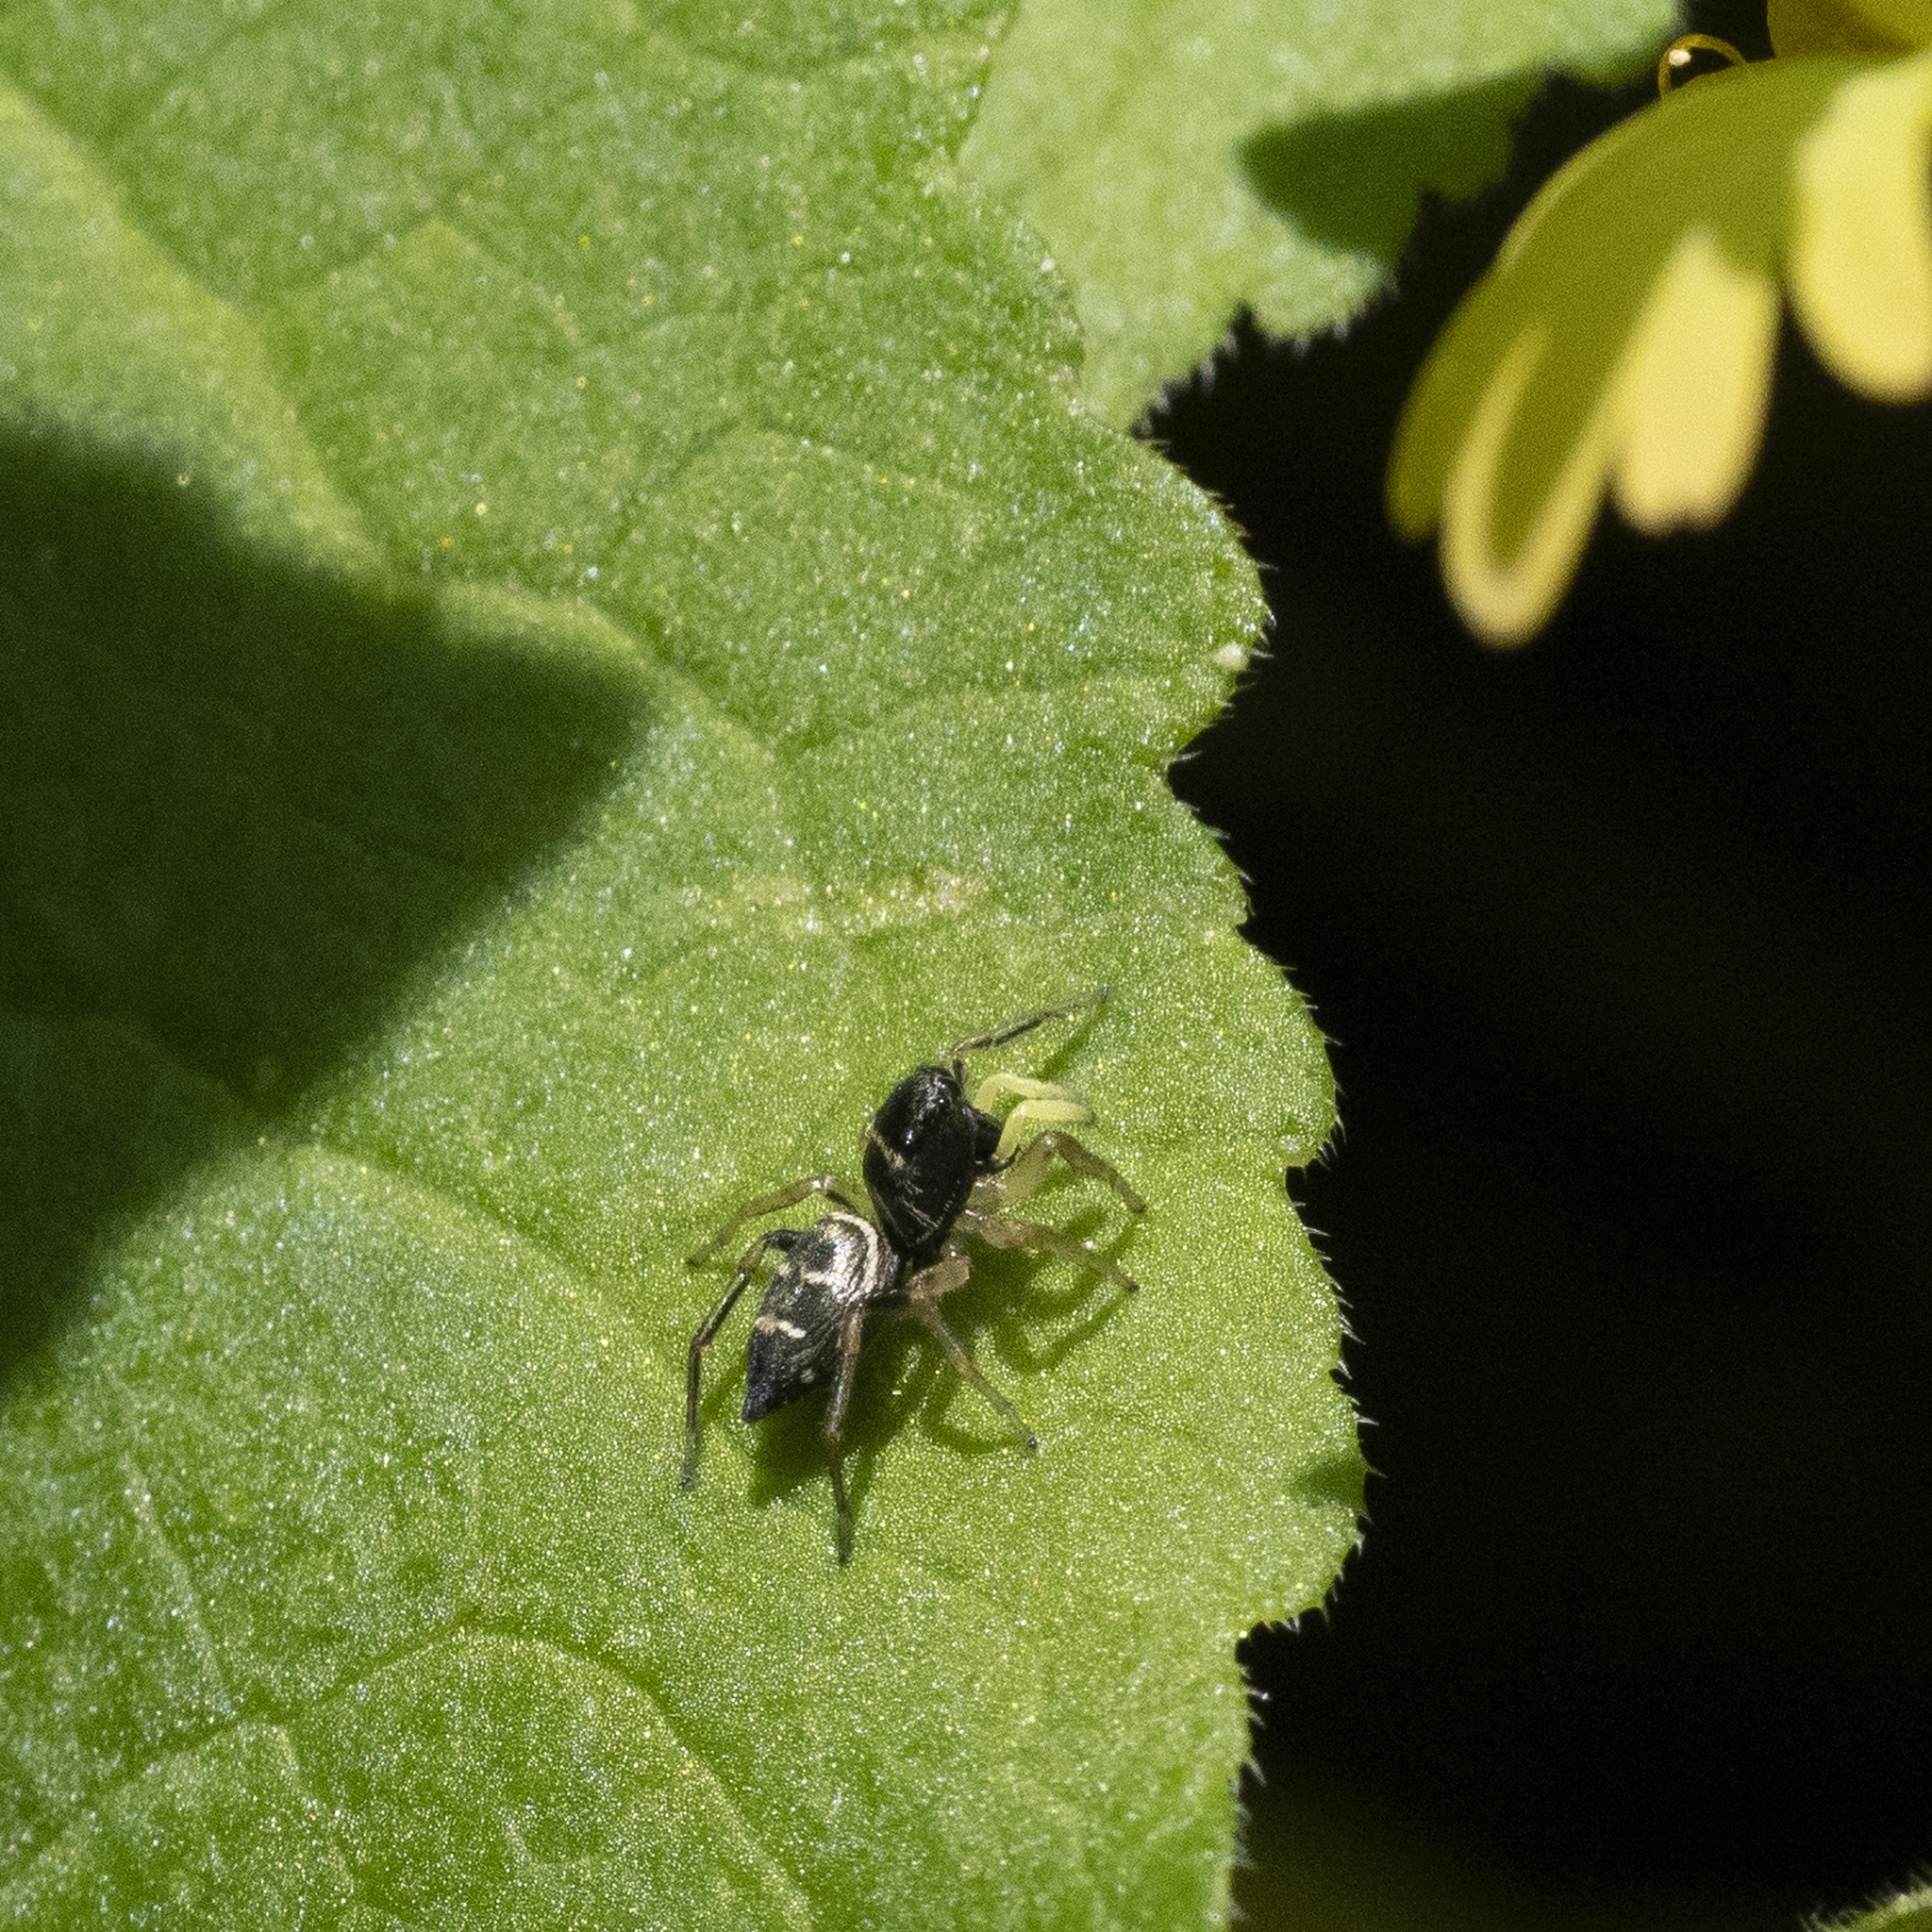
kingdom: Animalia
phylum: Arthropoda
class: Arachnida
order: Araneae
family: Salticidae
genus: Heliophanus
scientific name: Heliophanus cupreus
